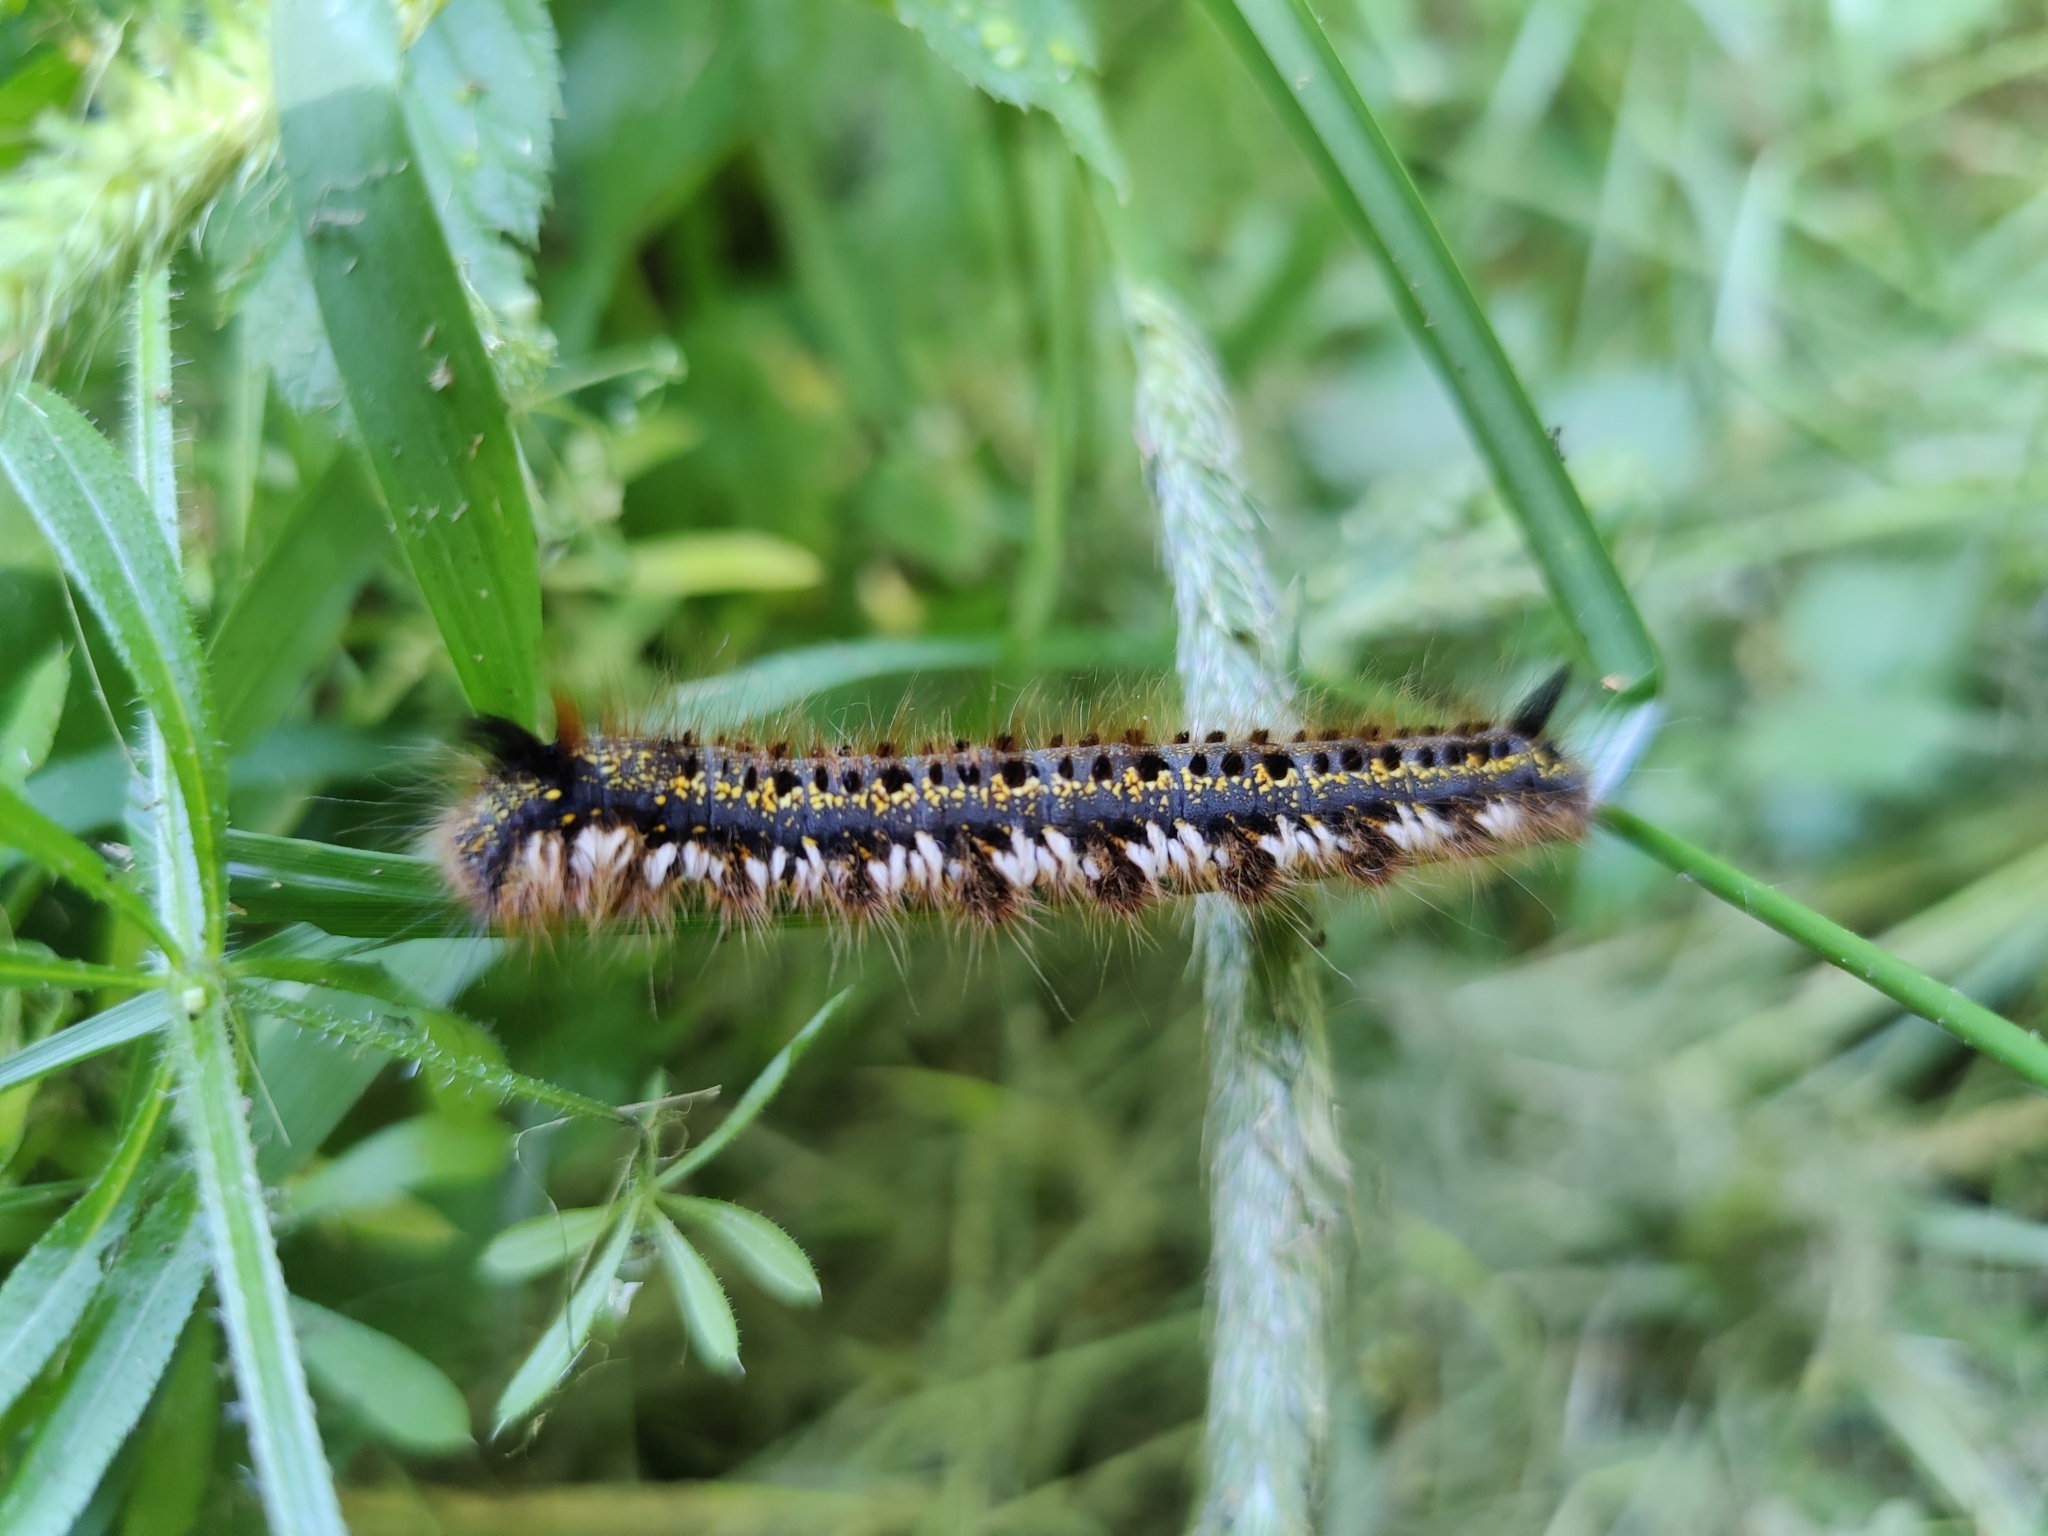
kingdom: Animalia
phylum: Arthropoda
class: Insecta
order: Lepidoptera
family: Lasiocampidae
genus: Euthrix
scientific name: Euthrix potatoria
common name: Drinker
